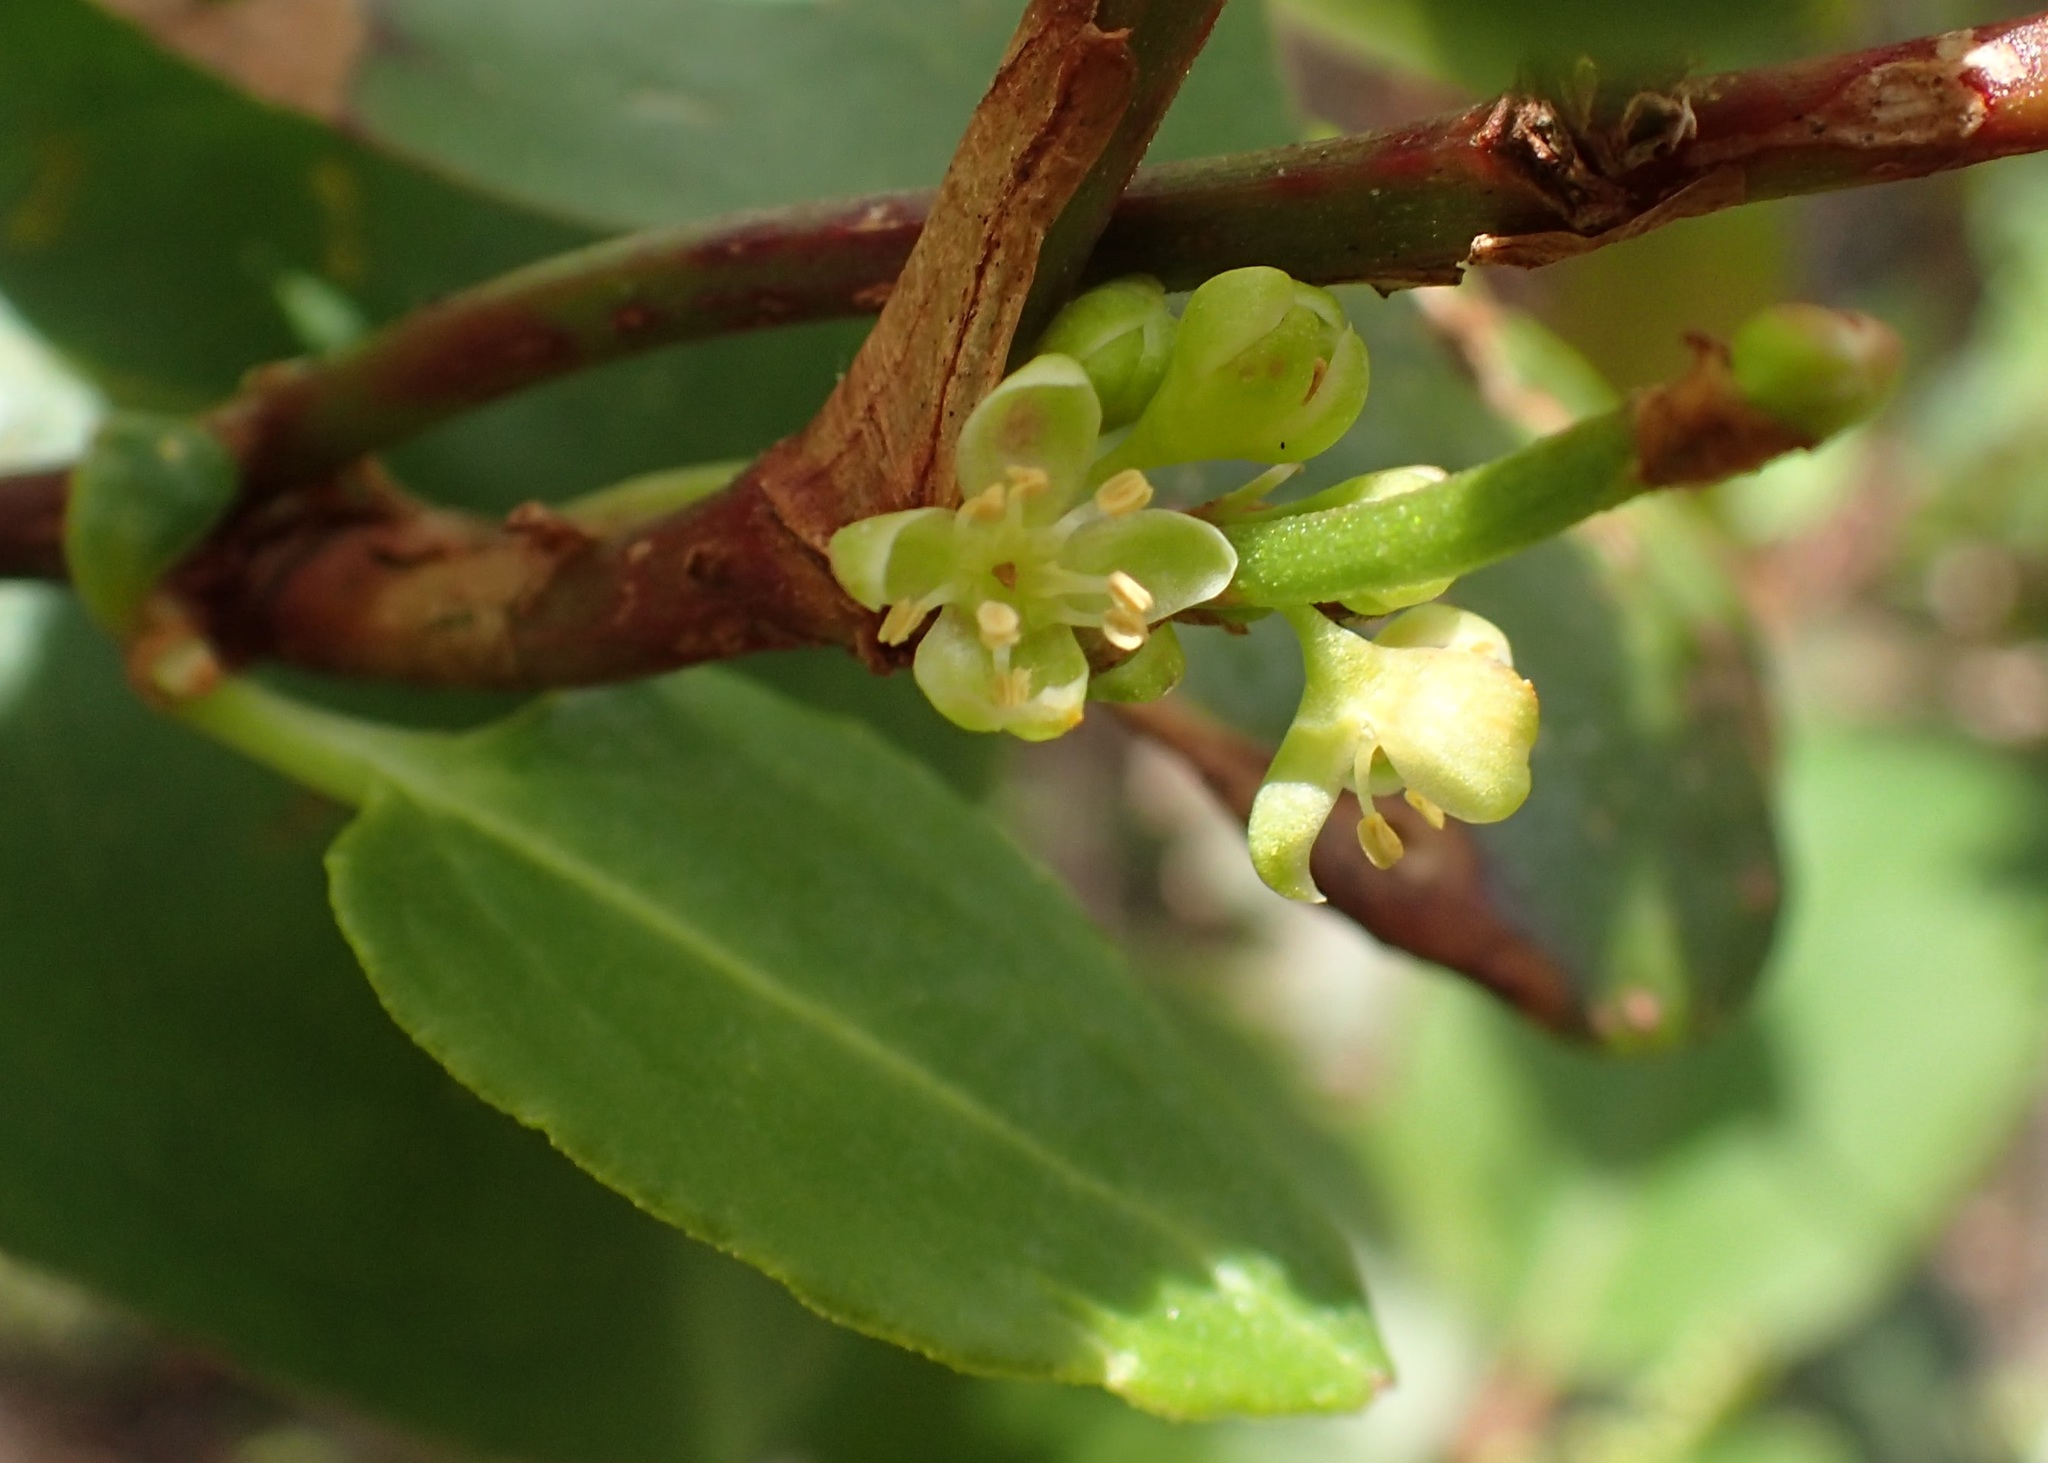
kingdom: Plantae
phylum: Tracheophyta
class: Magnoliopsida
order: Caryophyllales
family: Polygonaceae
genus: Muehlenbeckia
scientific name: Muehlenbeckia gunnii
